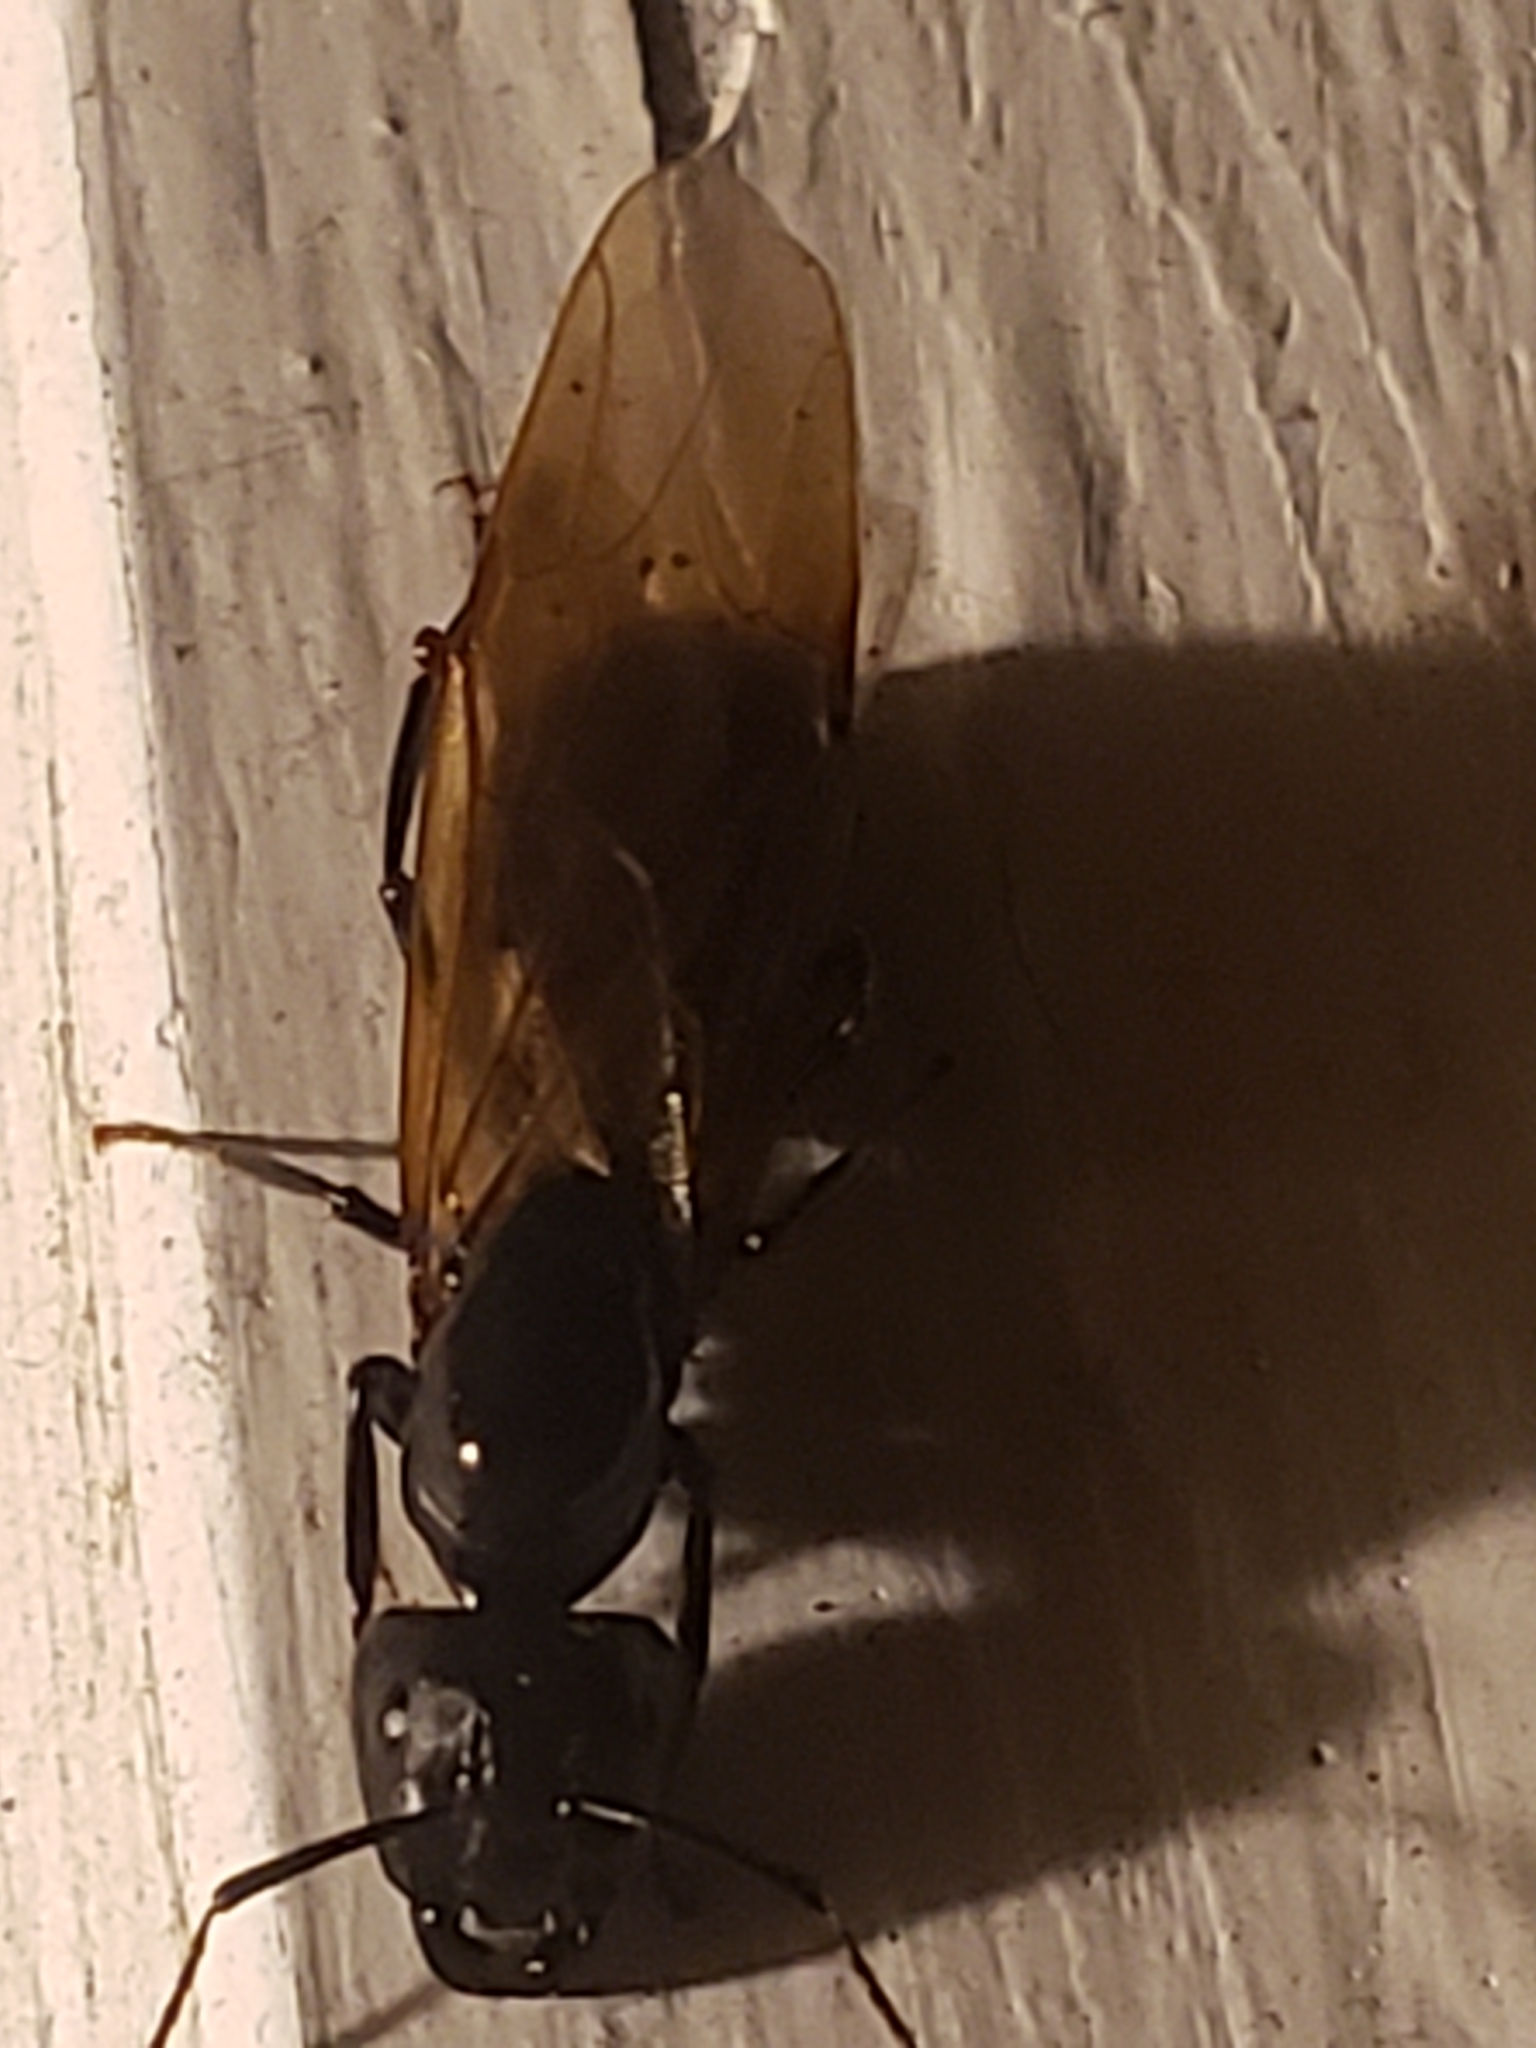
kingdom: Animalia
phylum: Arthropoda
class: Insecta
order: Hymenoptera
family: Formicidae
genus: Camponotus
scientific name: Camponotus pennsylvanicus
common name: Black carpenter ant
